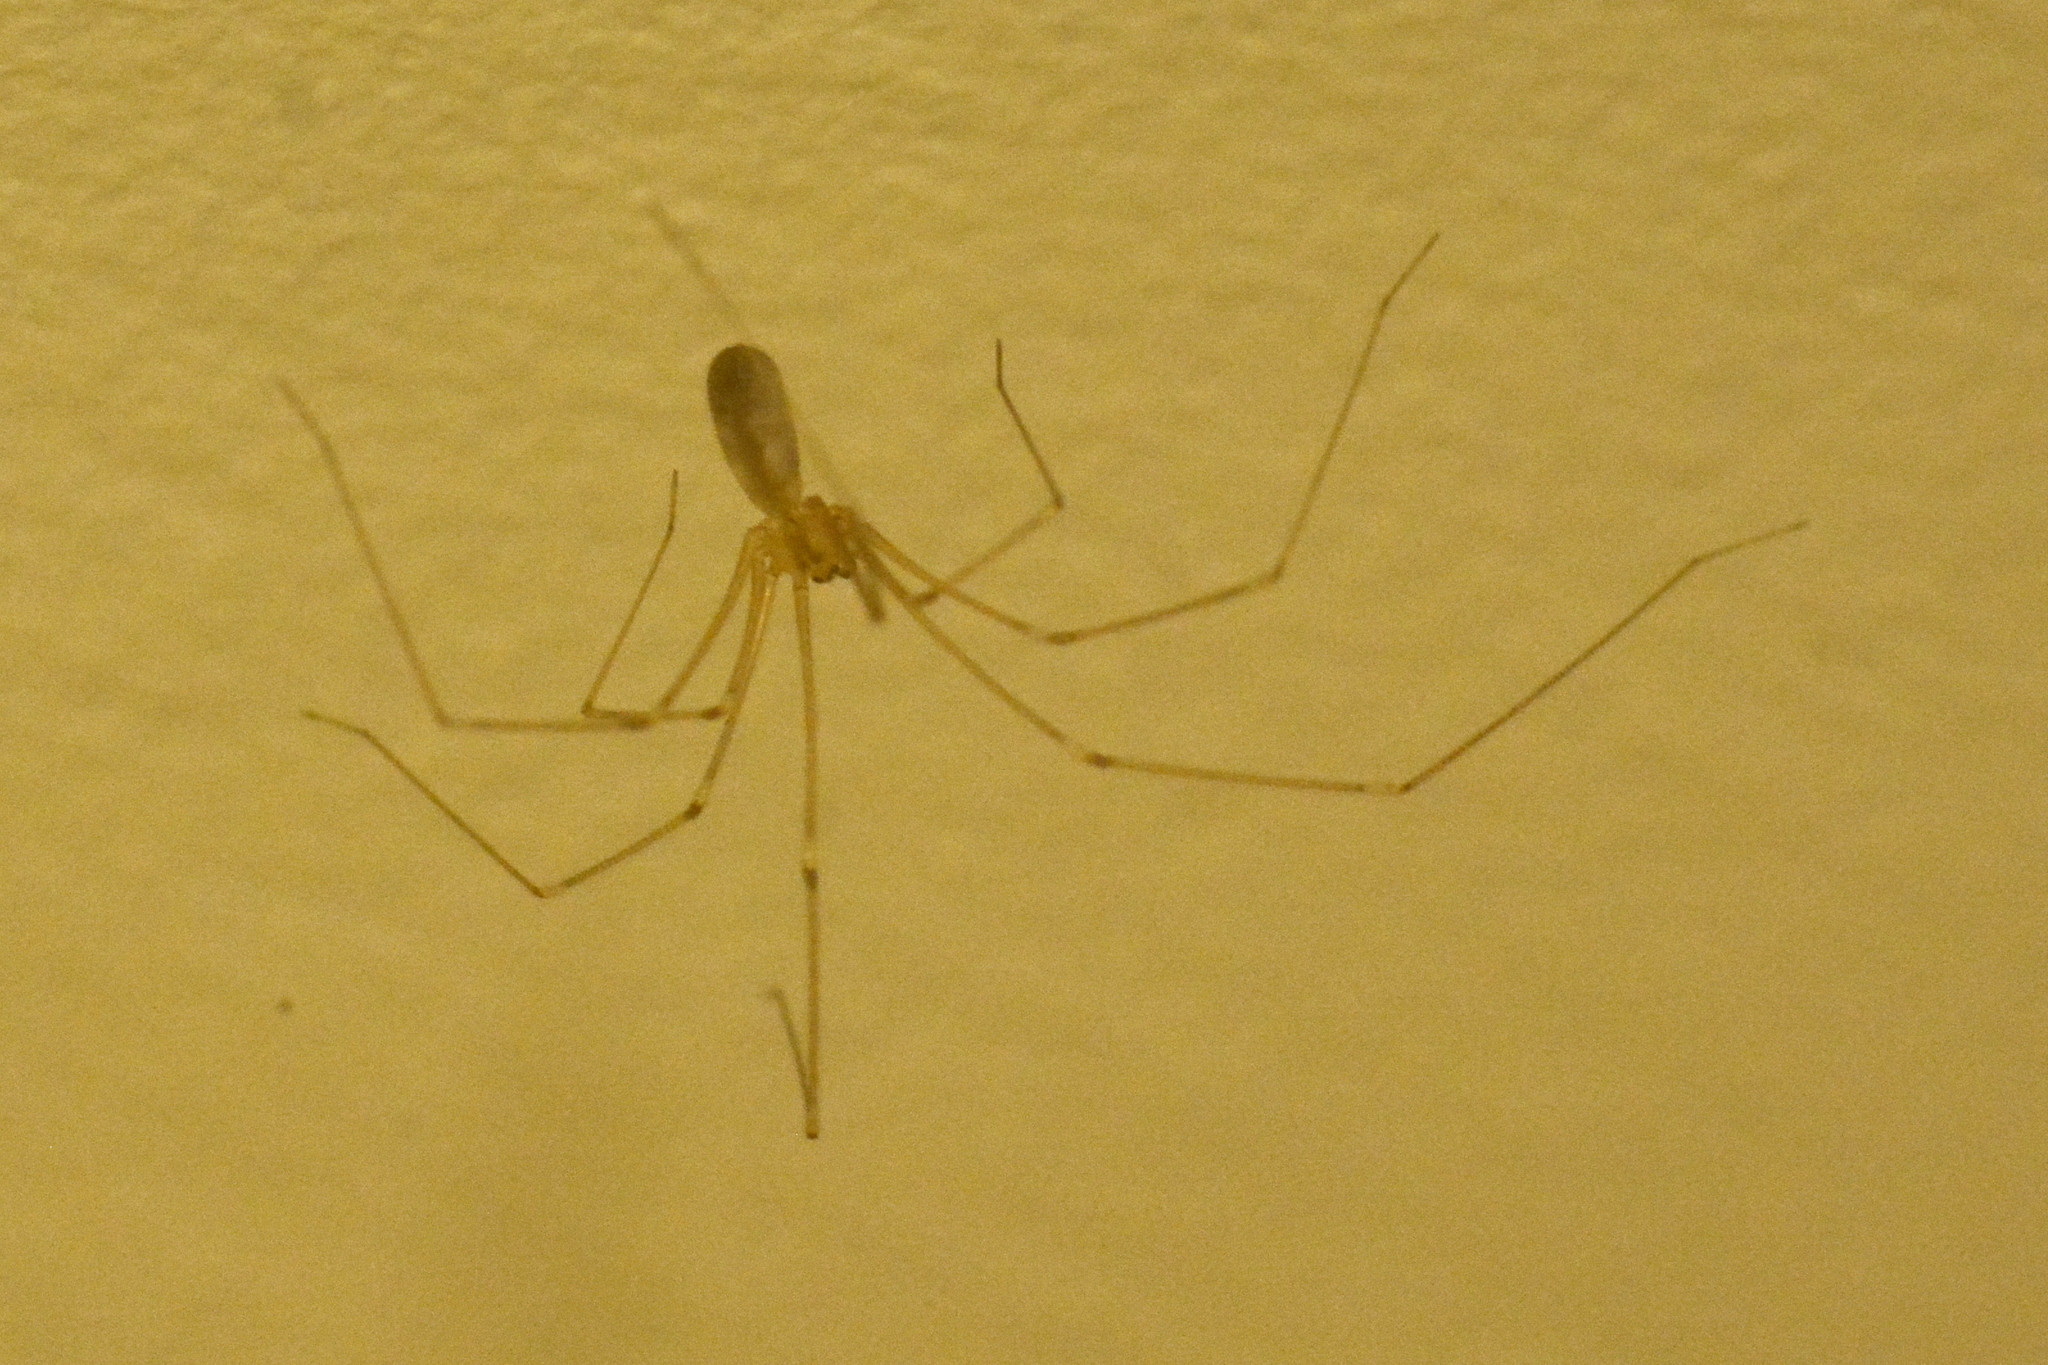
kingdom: Animalia
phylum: Arthropoda
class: Arachnida
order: Araneae
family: Pholcidae
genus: Pholcus
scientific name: Pholcus phalangioides
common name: Longbodied cellar spider
